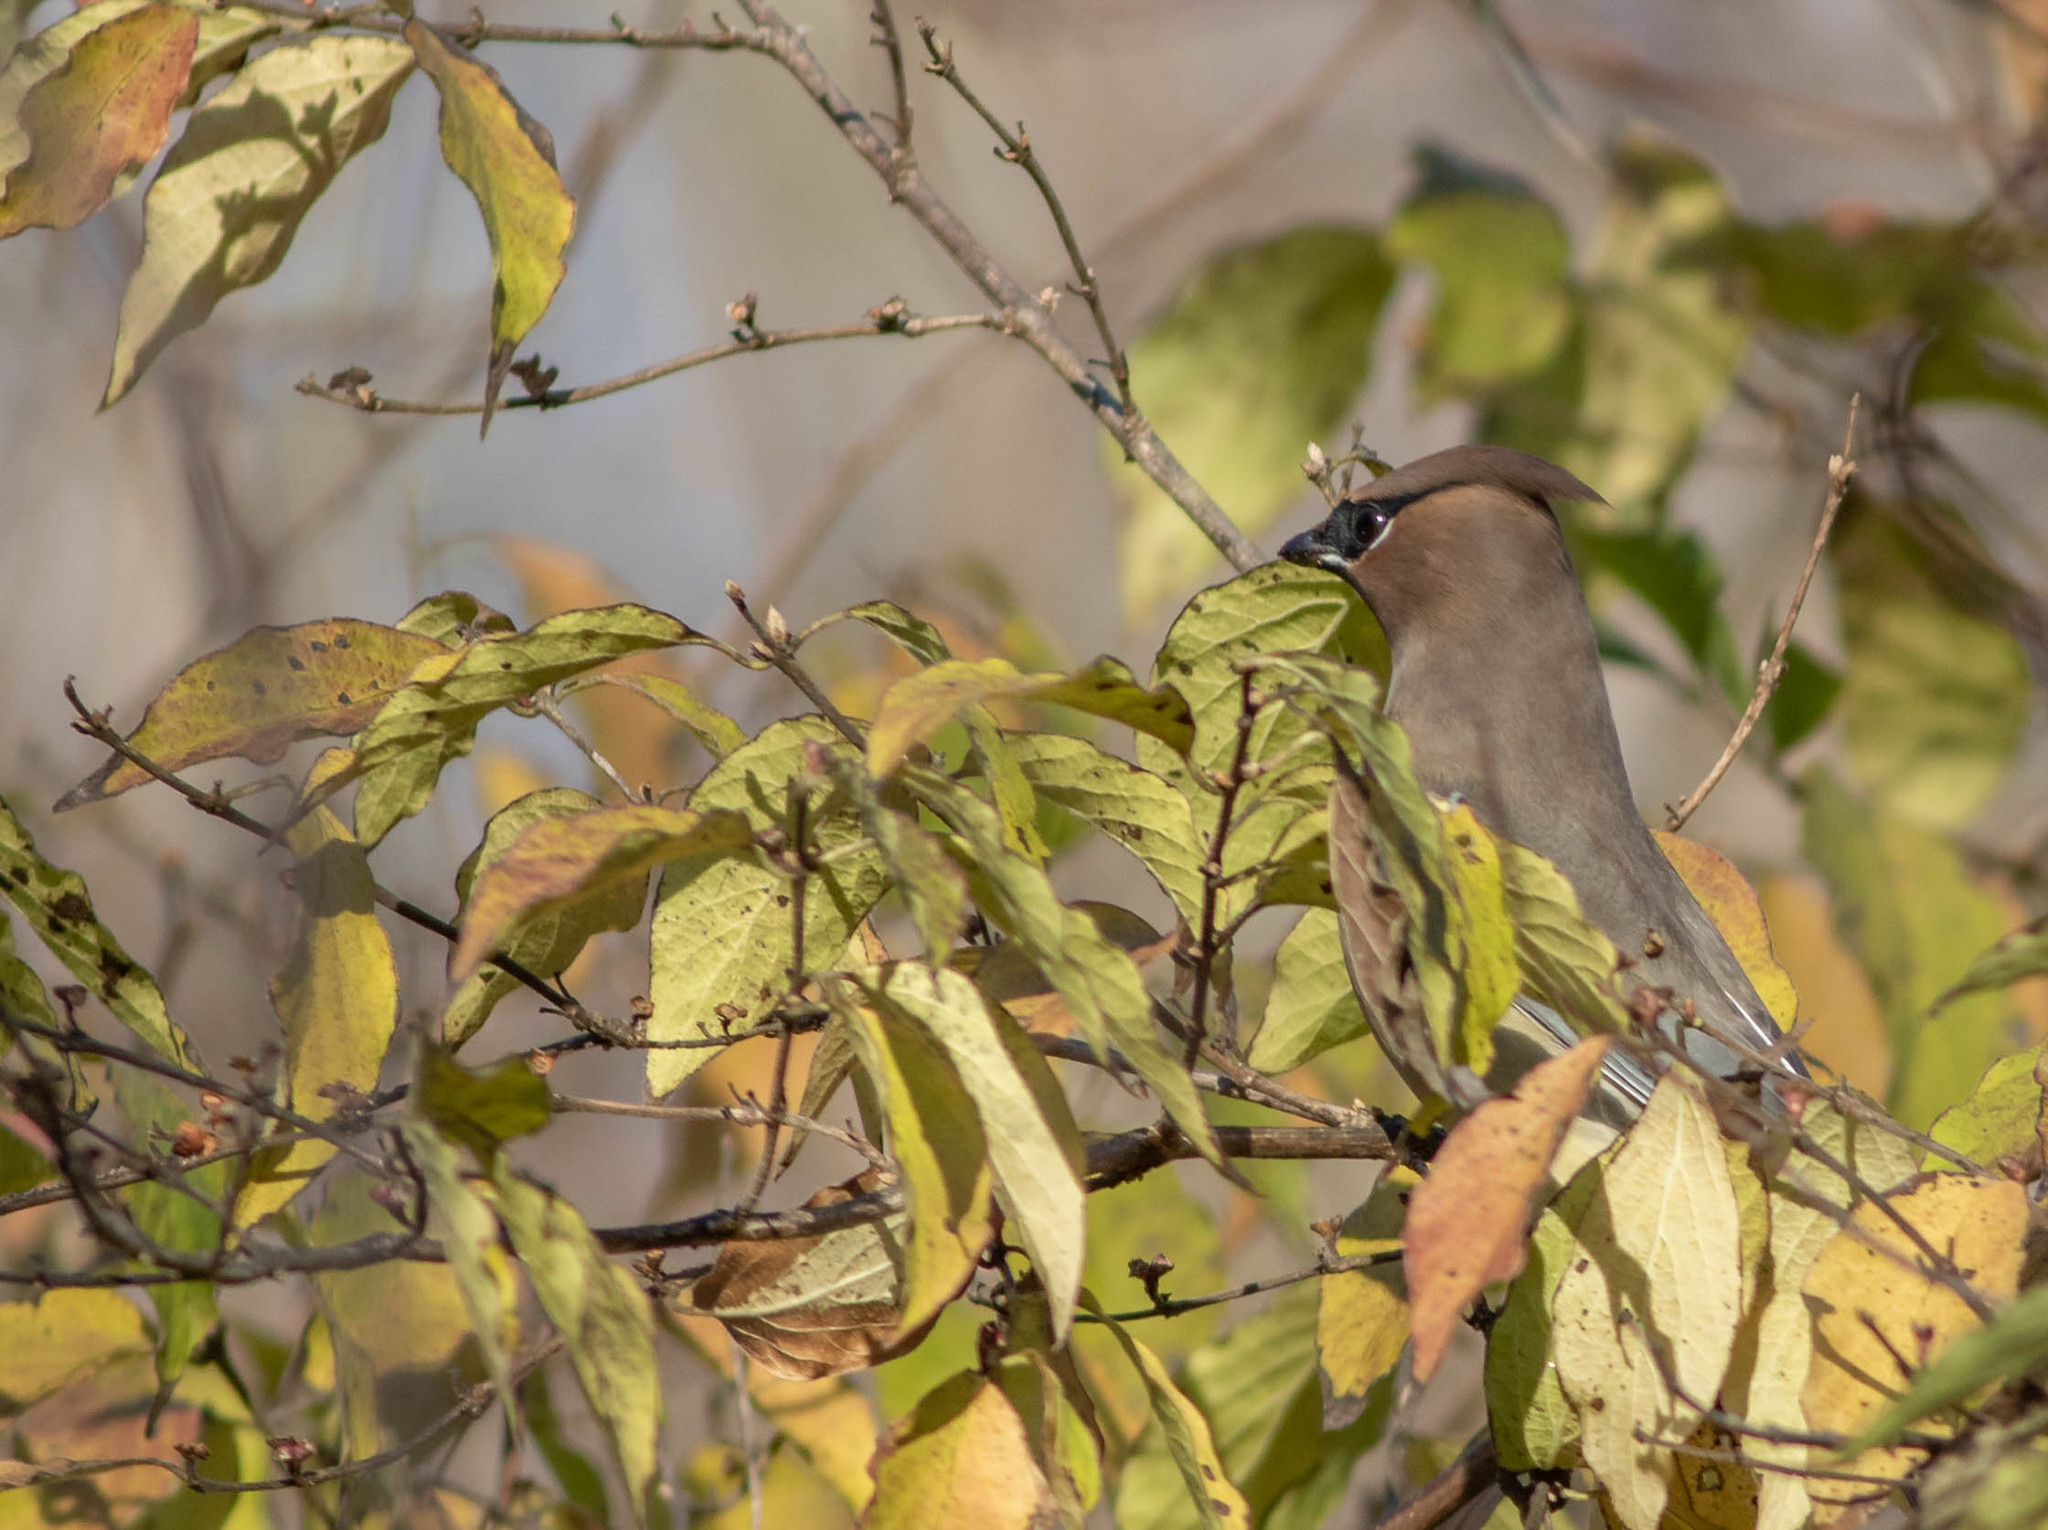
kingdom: Animalia
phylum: Chordata
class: Aves
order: Passeriformes
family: Bombycillidae
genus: Bombycilla
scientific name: Bombycilla cedrorum
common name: Cedar waxwing
